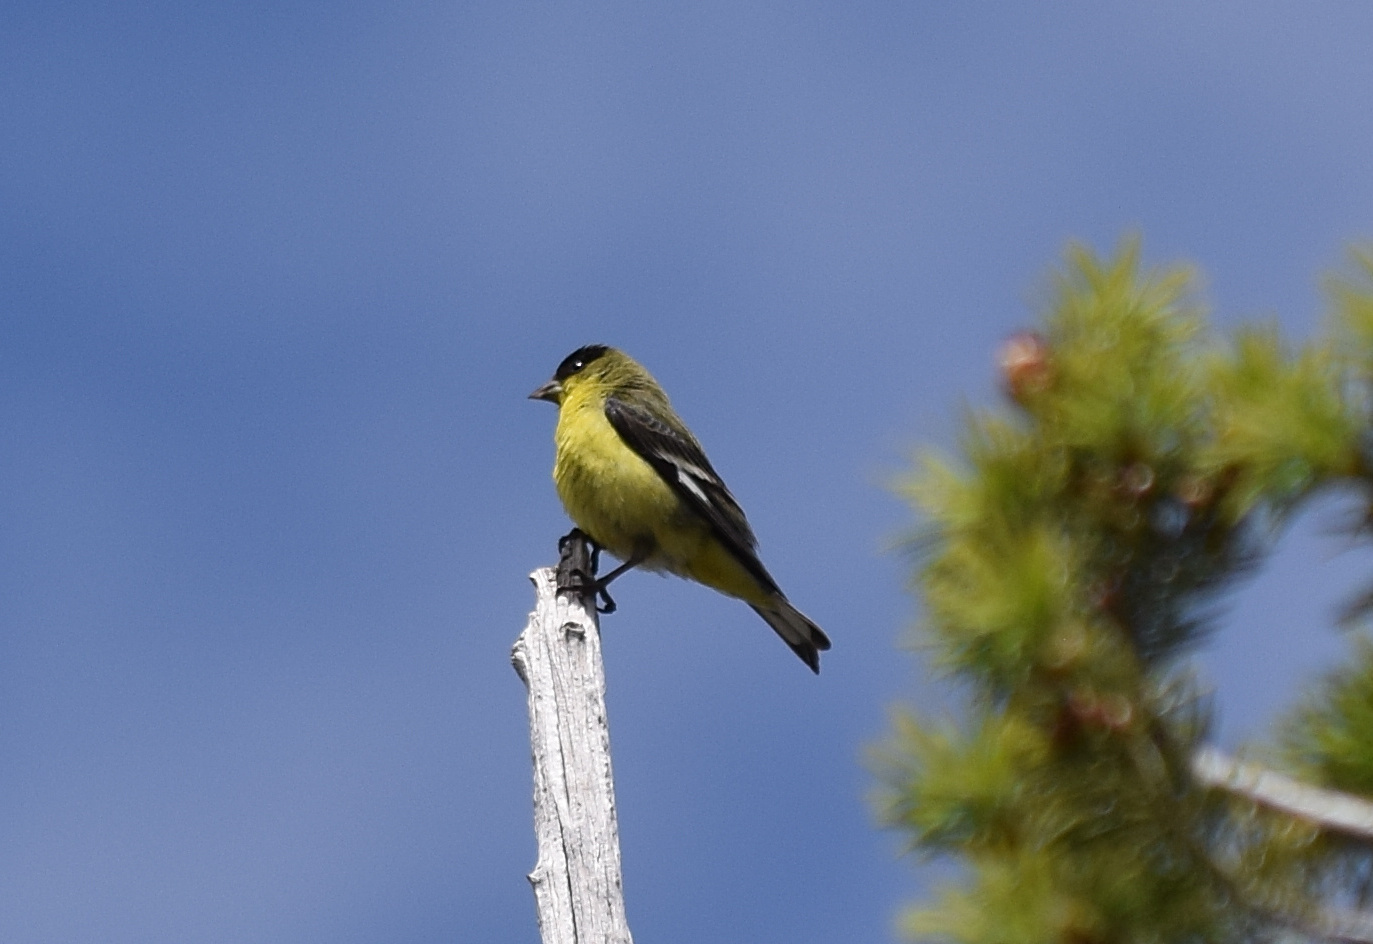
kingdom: Animalia
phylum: Chordata
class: Aves
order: Passeriformes
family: Fringillidae
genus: Spinus
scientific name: Spinus psaltria
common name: Lesser goldfinch
